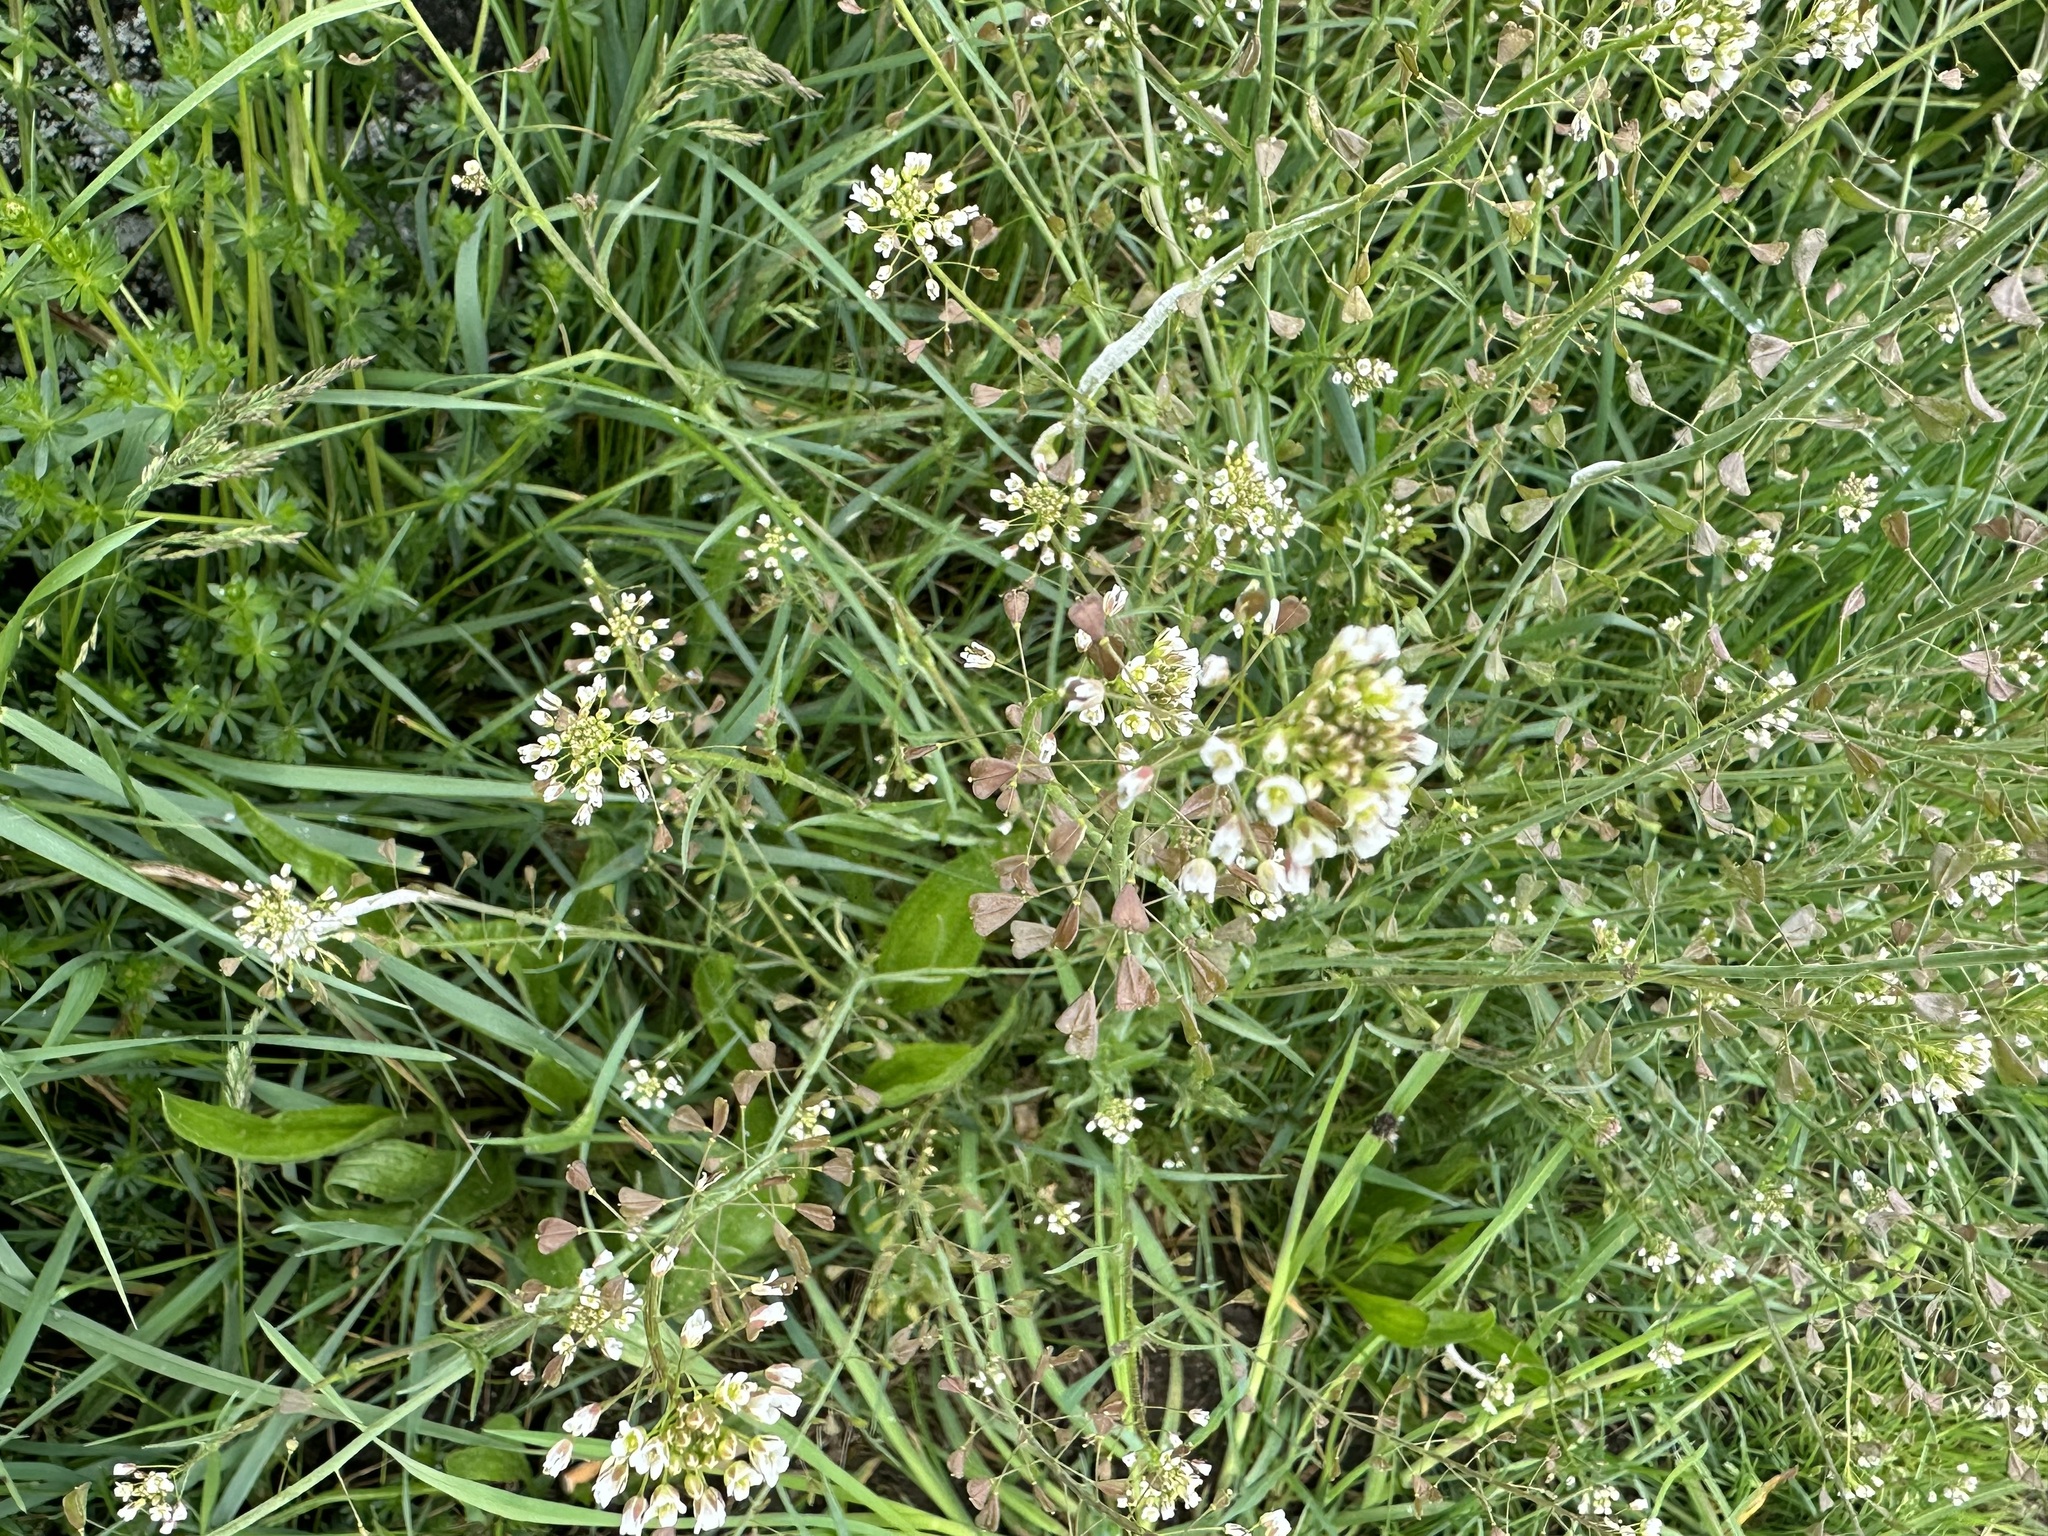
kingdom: Plantae
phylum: Tracheophyta
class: Magnoliopsida
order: Brassicales
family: Brassicaceae
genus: Capsella
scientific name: Capsella bursa-pastoris
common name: Shepherd's purse
